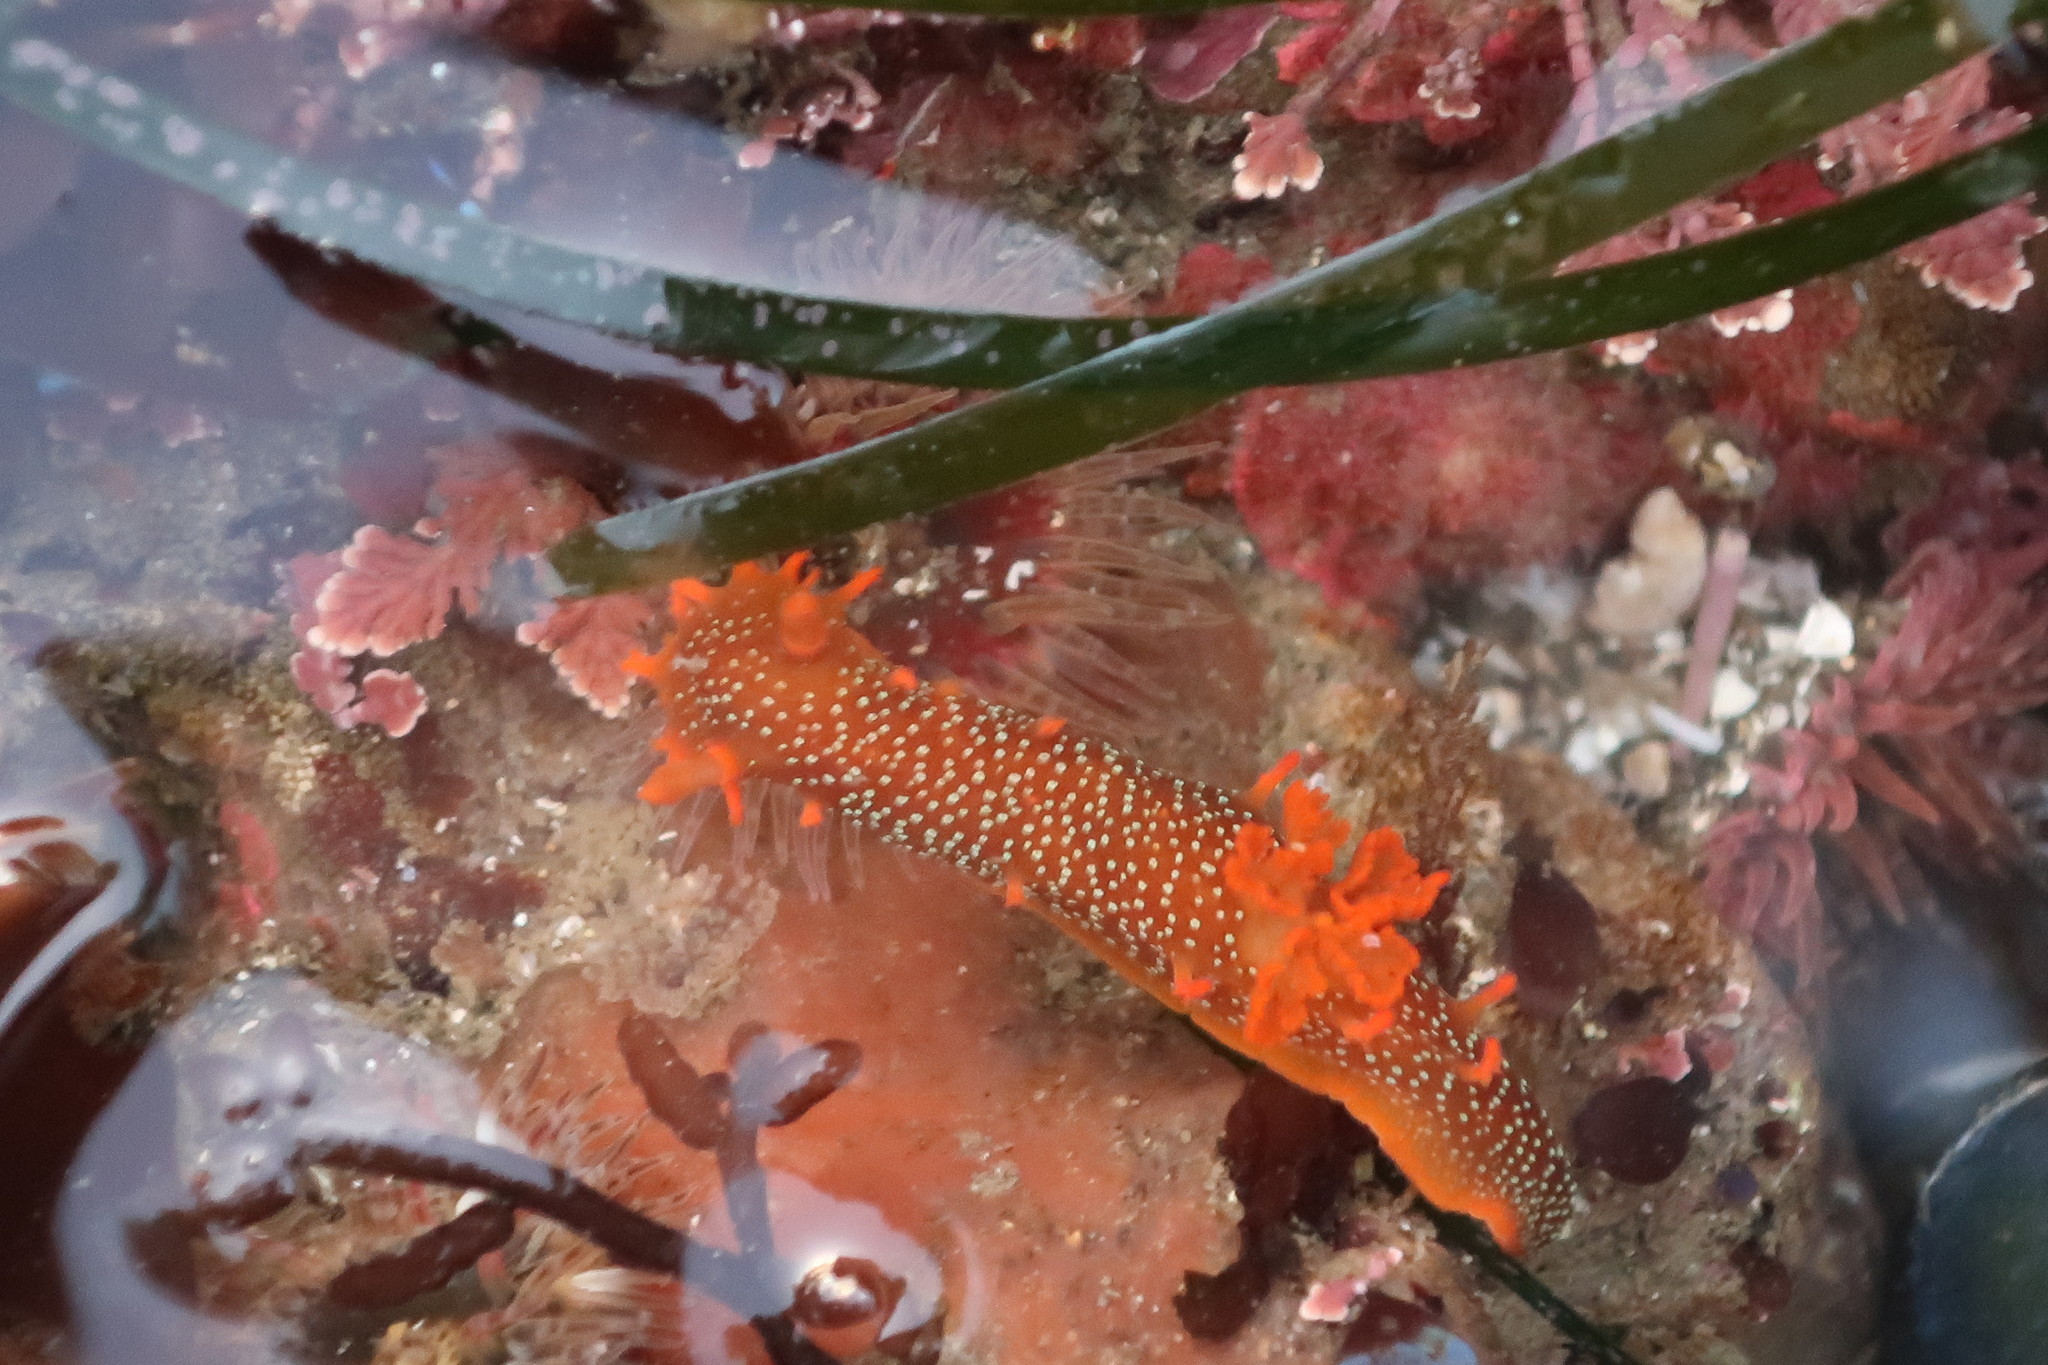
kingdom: Animalia
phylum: Mollusca
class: Gastropoda
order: Nudibranchia
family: Polyceridae
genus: Triopha
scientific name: Triopha maculata
